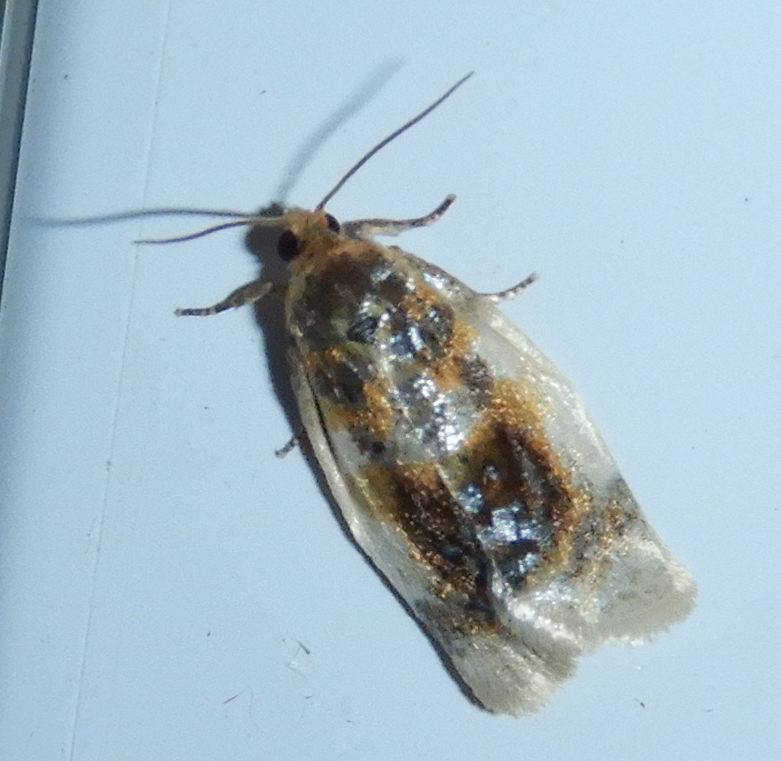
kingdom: Animalia
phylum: Arthropoda
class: Insecta
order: Lepidoptera
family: Tortricidae
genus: Clepsis
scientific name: Clepsis melaleucanus
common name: American apple tortrix
